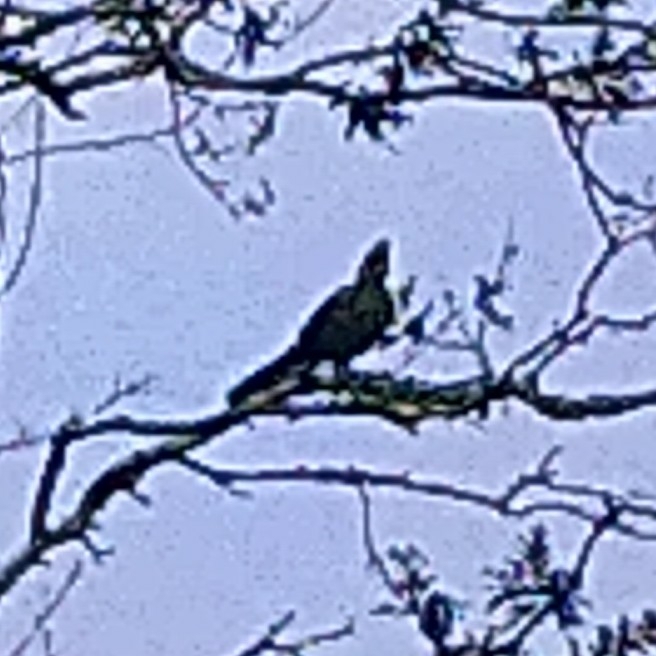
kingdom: Animalia
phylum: Chordata
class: Aves
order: Musophagiformes
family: Musophagidae
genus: Tauraco
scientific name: Tauraco corythaix
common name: Knysna turaco
